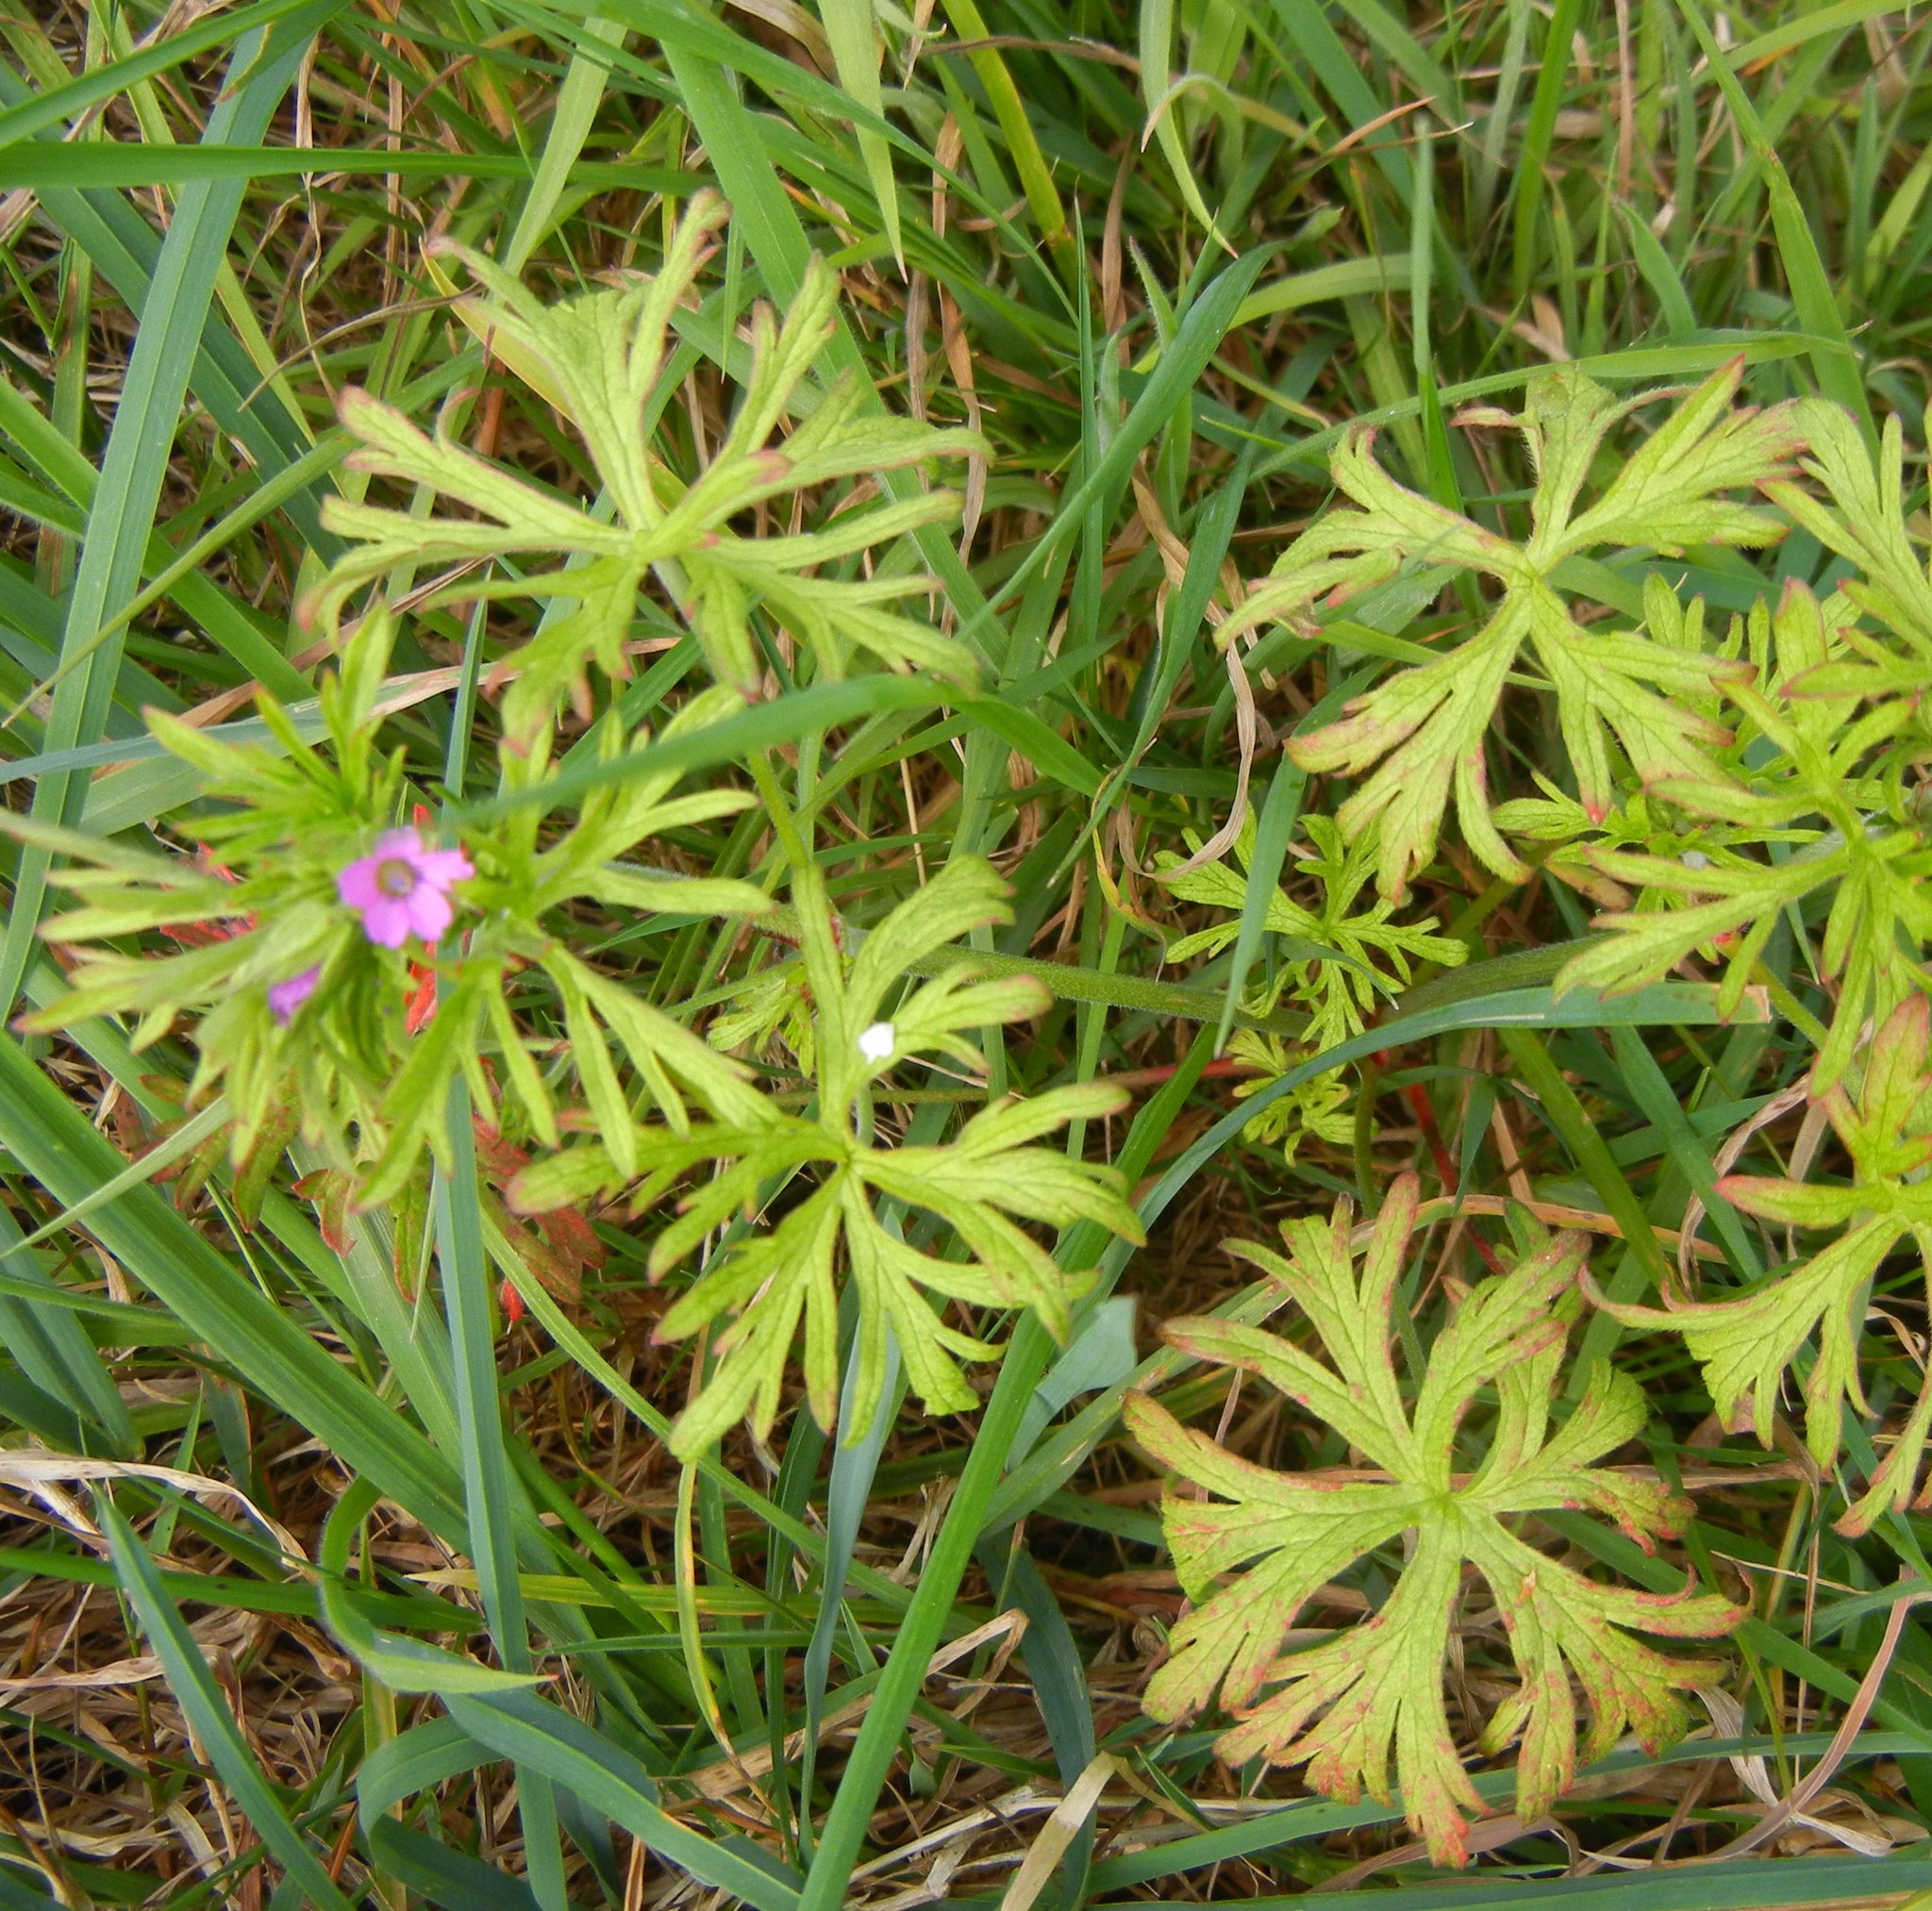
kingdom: Plantae
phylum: Tracheophyta
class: Magnoliopsida
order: Geraniales
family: Geraniaceae
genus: Geranium
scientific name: Geranium dissectum
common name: Cut-leaved crane's-bill
